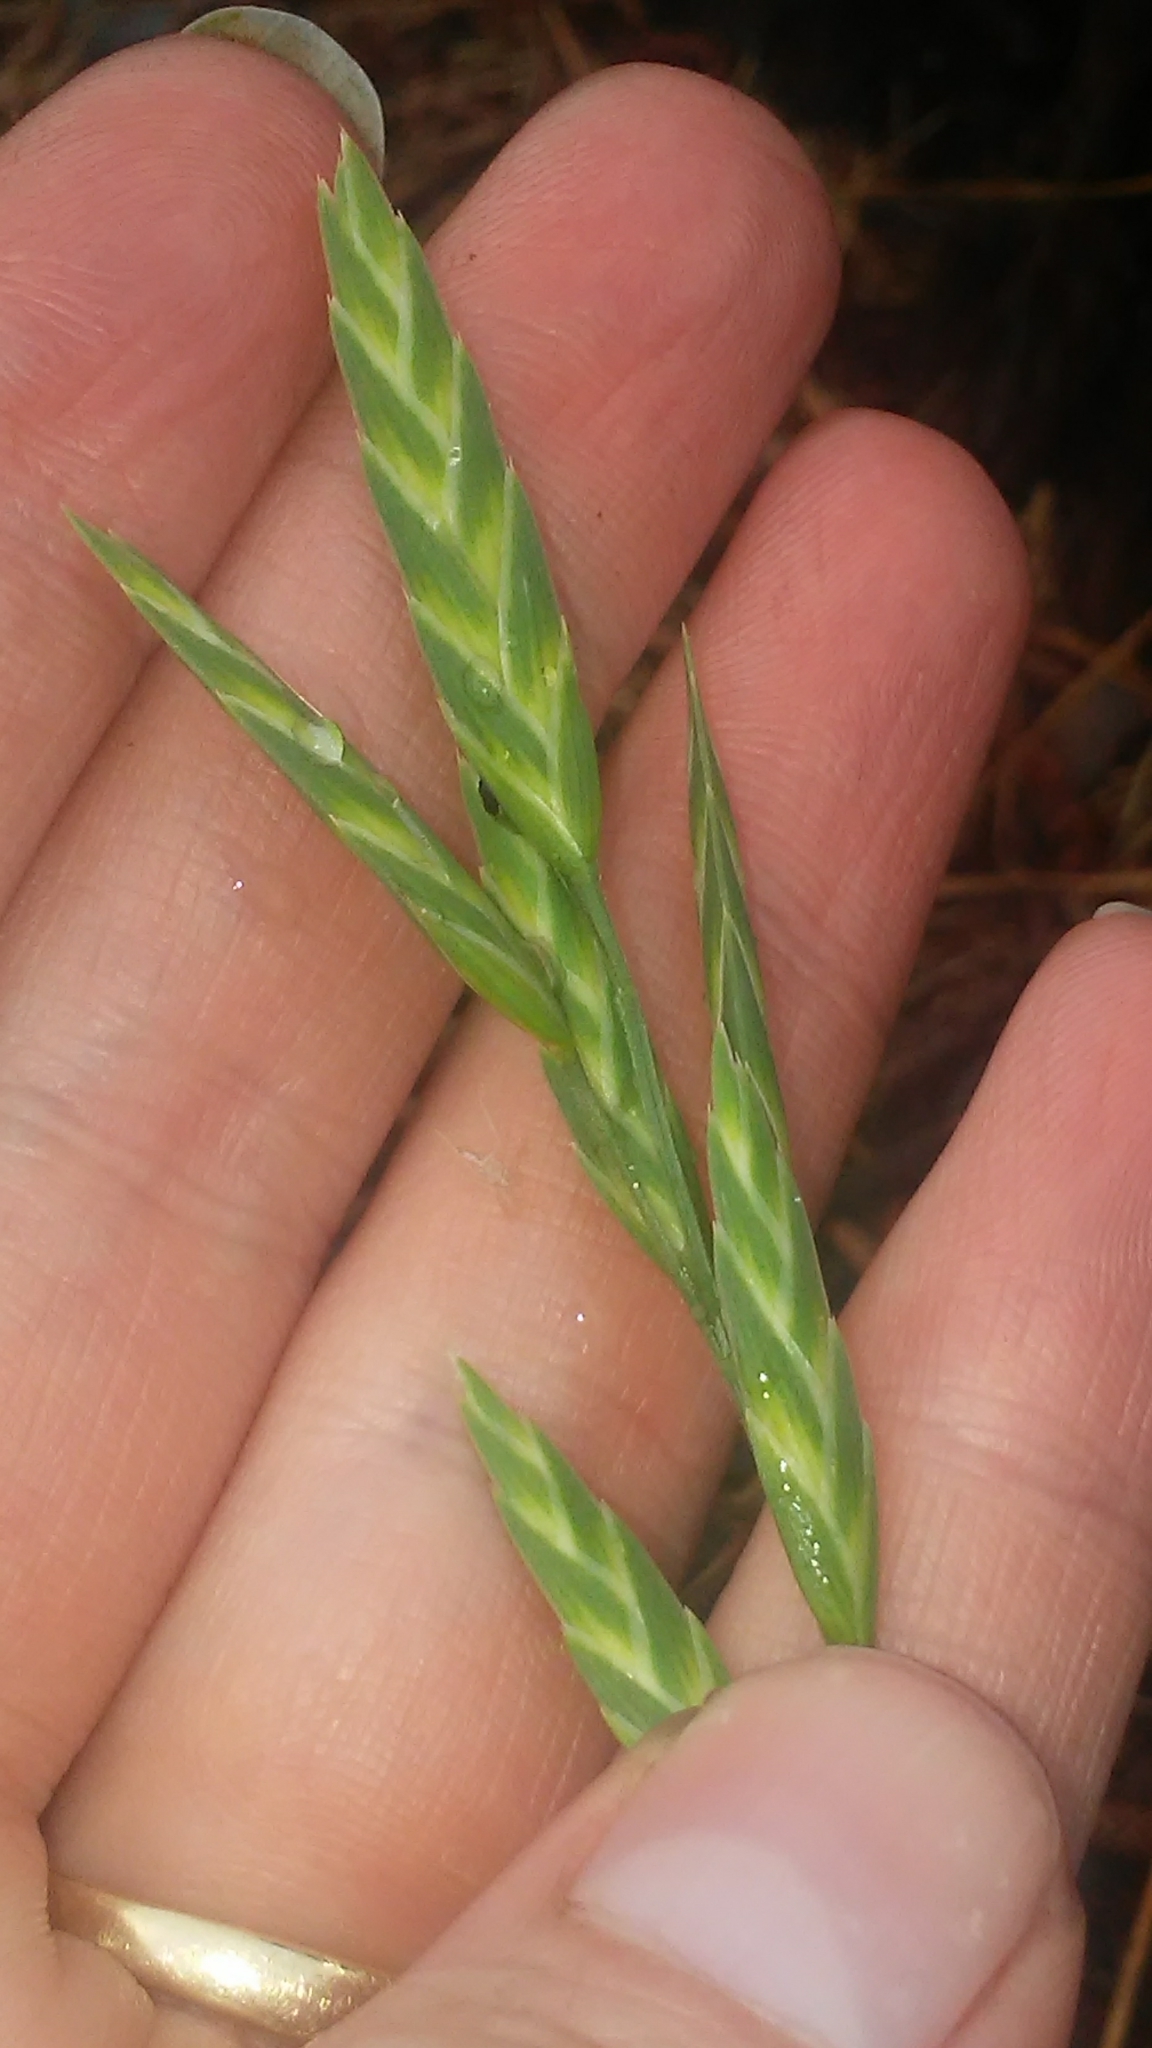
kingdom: Plantae
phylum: Tracheophyta
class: Liliopsida
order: Poales
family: Poaceae
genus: Bromus
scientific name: Bromus catharticus
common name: Rescuegrass
